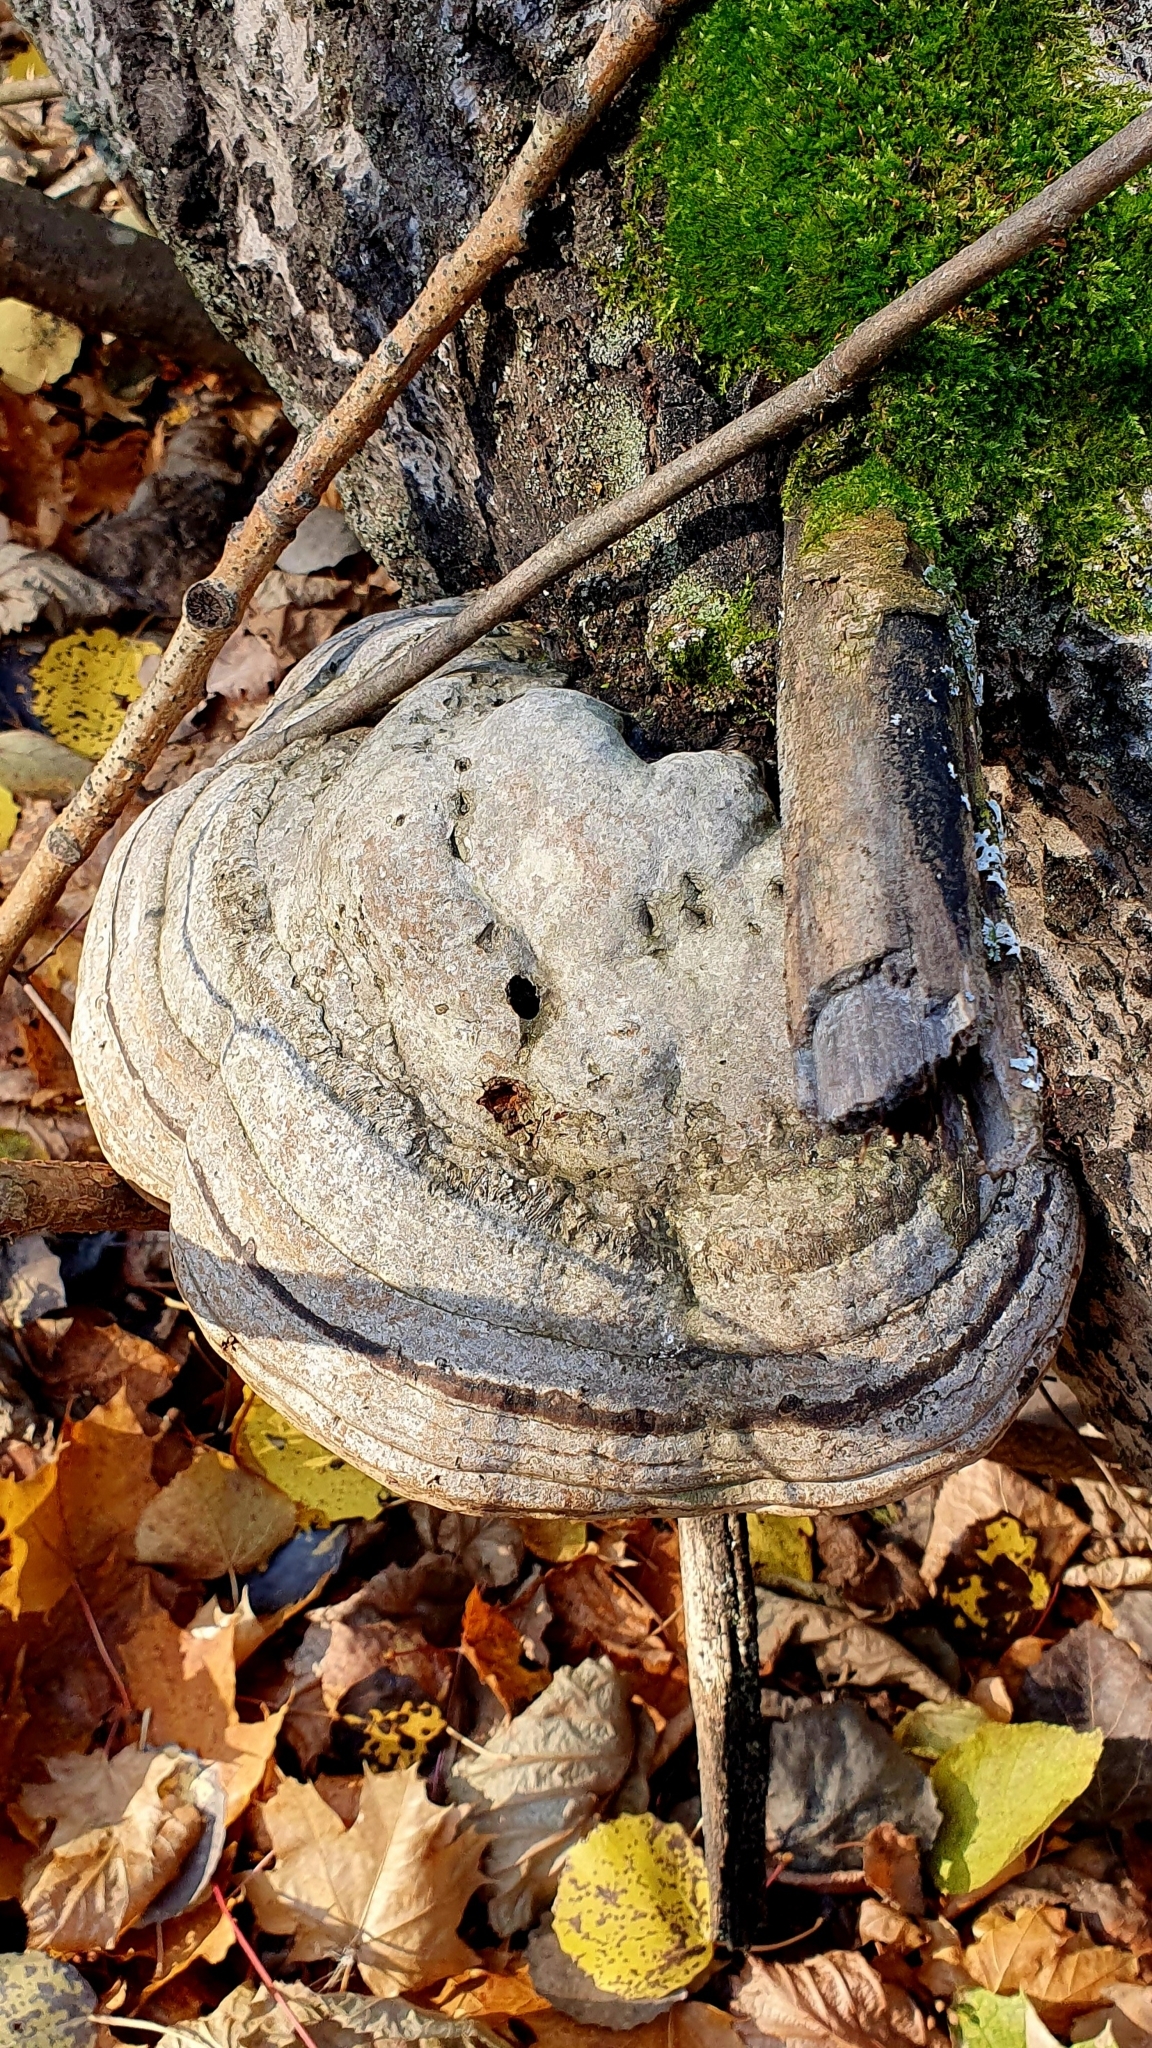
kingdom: Fungi
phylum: Basidiomycota
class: Agaricomycetes
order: Polyporales
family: Polyporaceae
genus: Fomes
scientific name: Fomes fomentarius
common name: Hoof fungus
